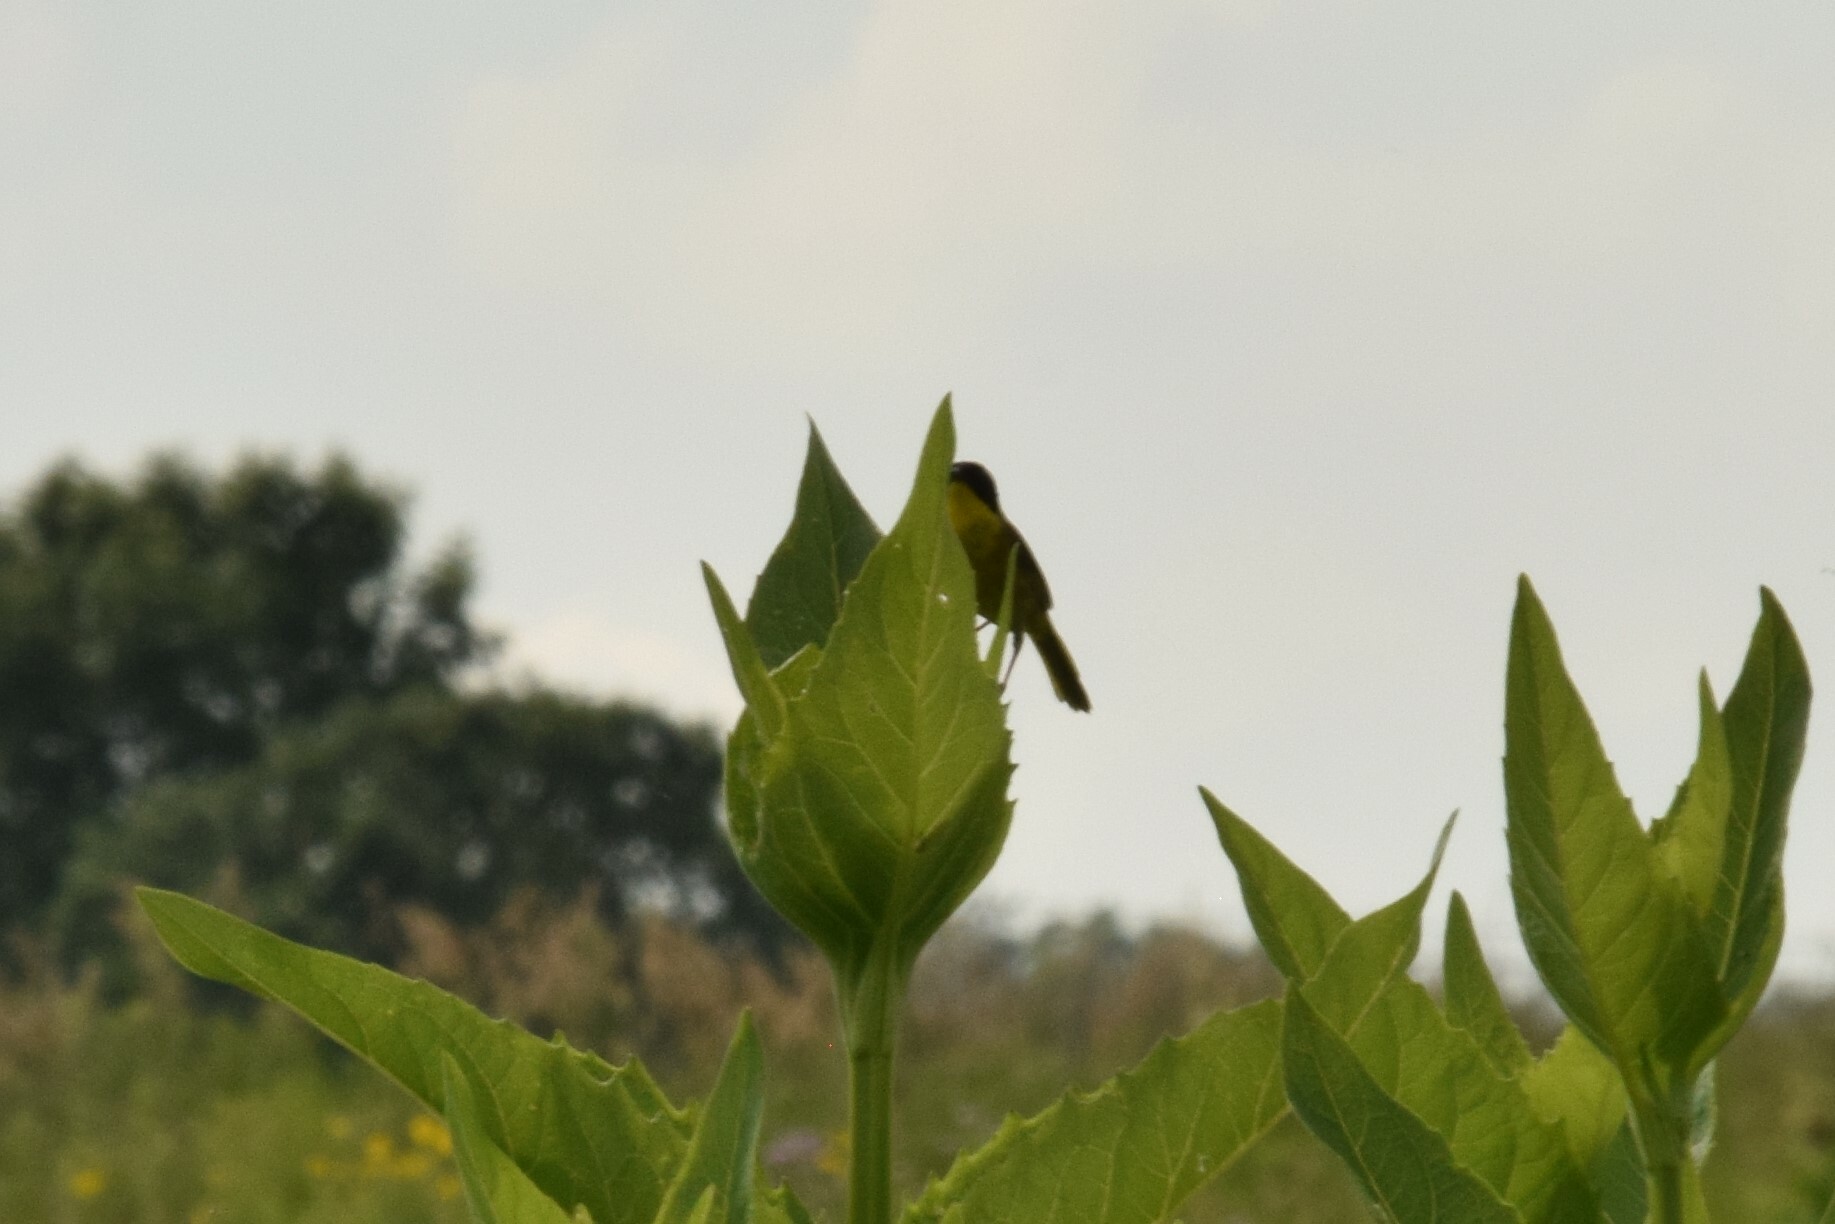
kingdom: Animalia
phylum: Chordata
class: Aves
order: Passeriformes
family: Parulidae
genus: Geothlypis
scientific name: Geothlypis trichas
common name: Common yellowthroat
